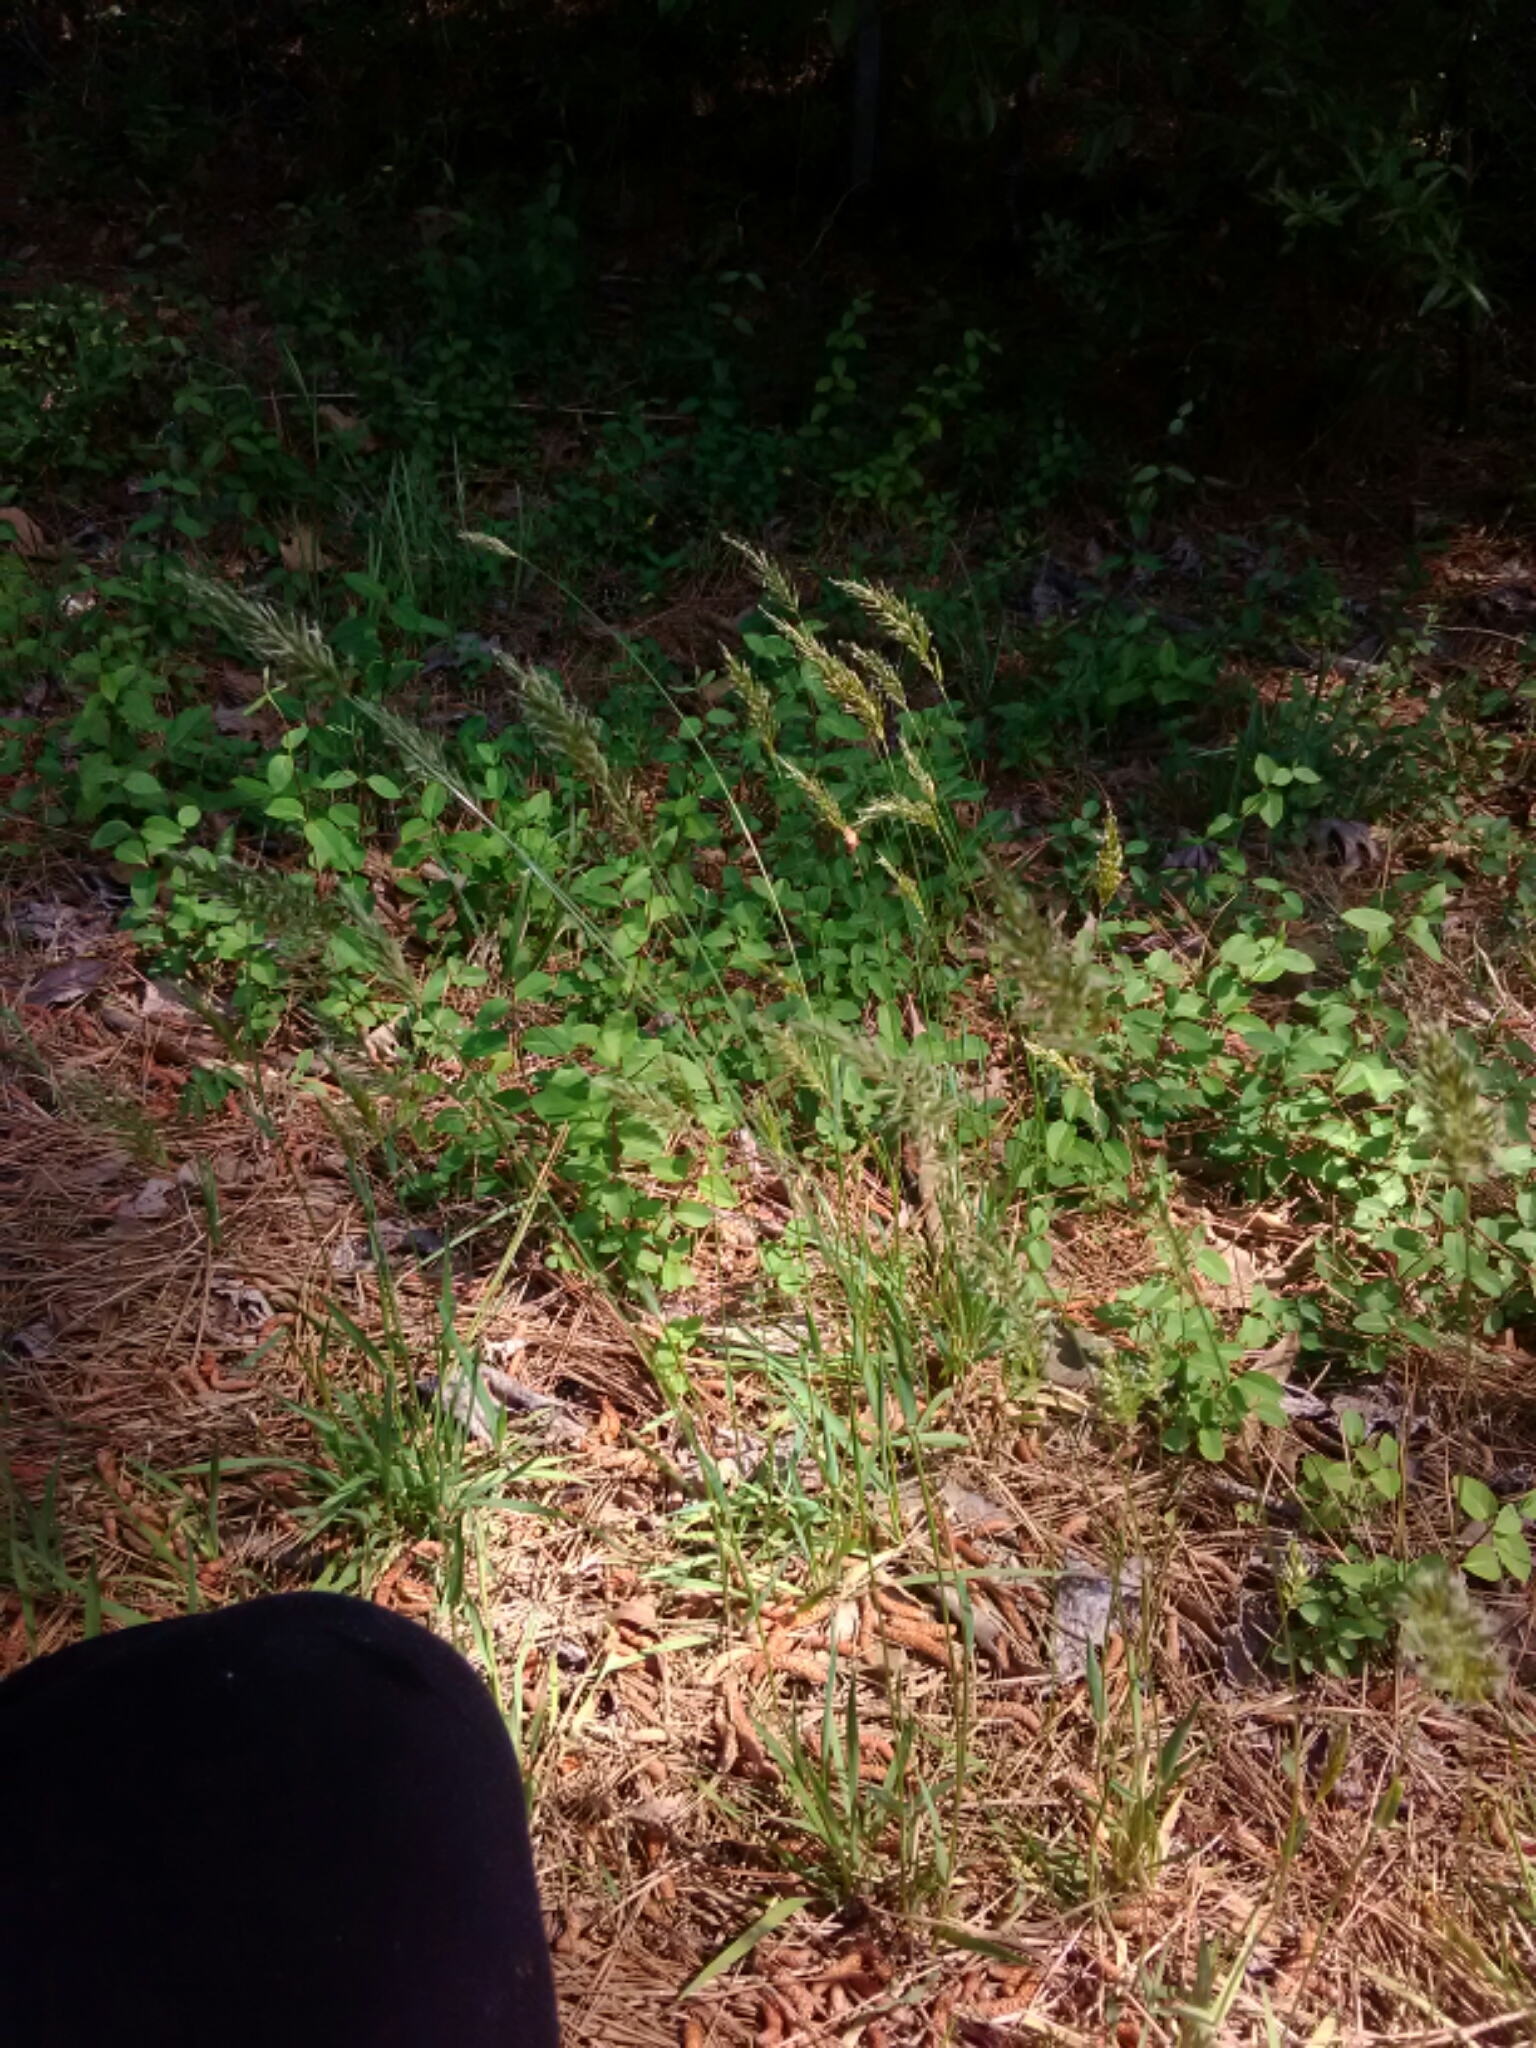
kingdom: Plantae
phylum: Tracheophyta
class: Liliopsida
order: Poales
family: Poaceae
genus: Anthoxanthum
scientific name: Anthoxanthum odoratum
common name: Sweet vernalgrass
